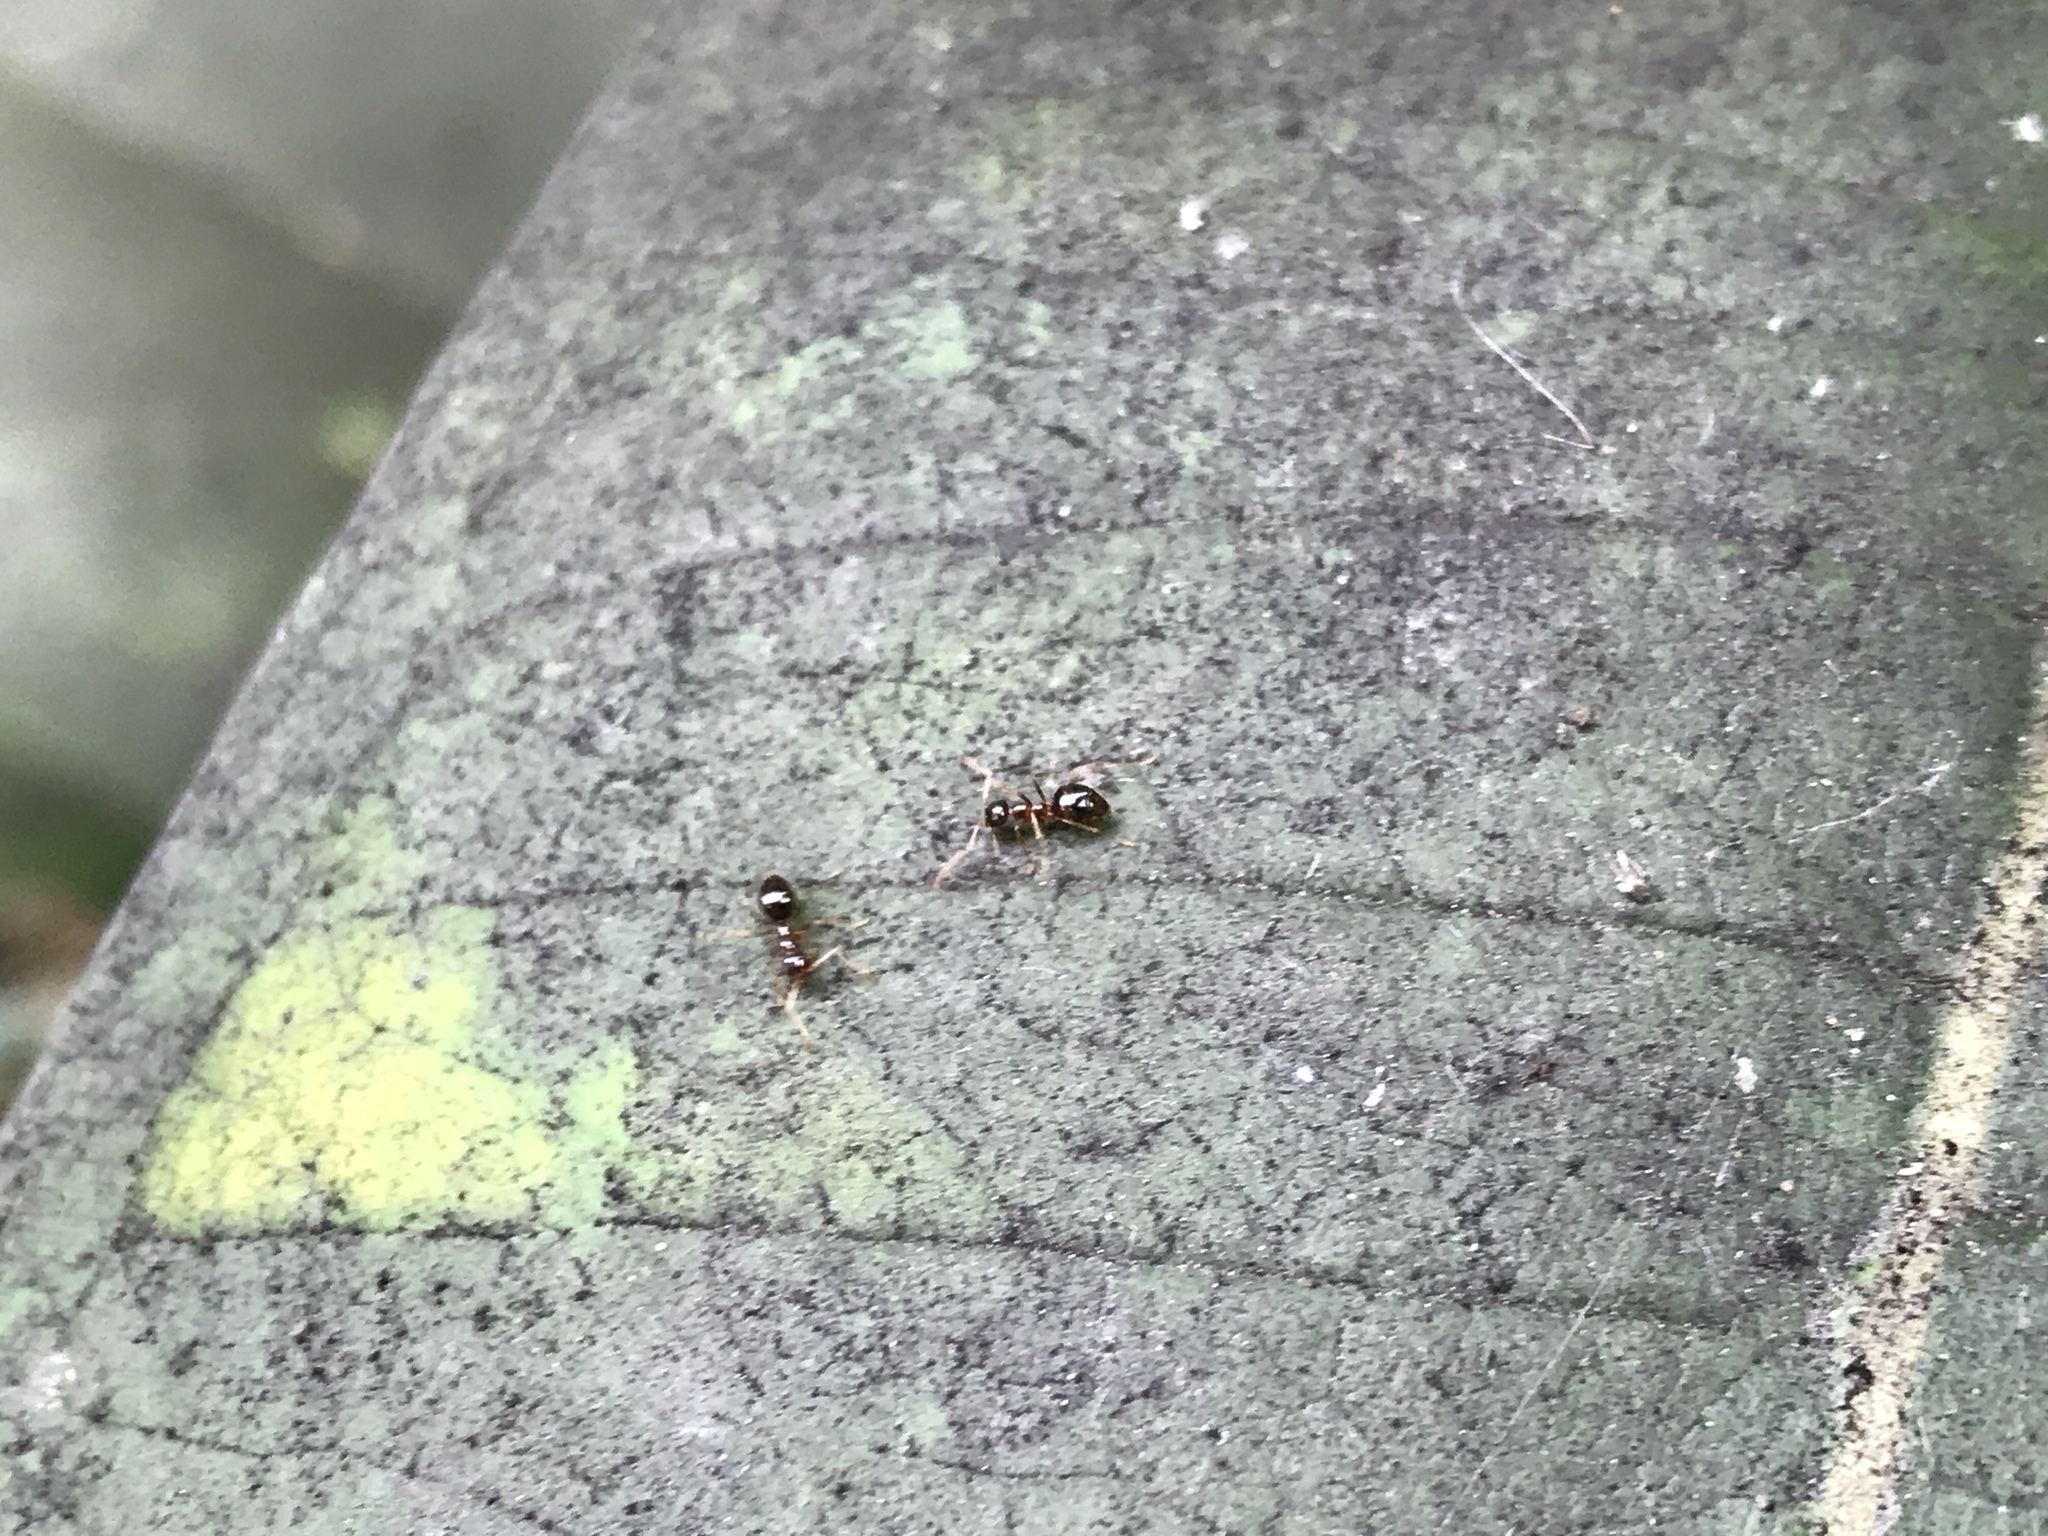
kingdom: Animalia
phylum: Arthropoda
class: Insecta
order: Hymenoptera
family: Formicidae
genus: Prenolepis
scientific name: Prenolepis imparis
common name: Small honey ant
